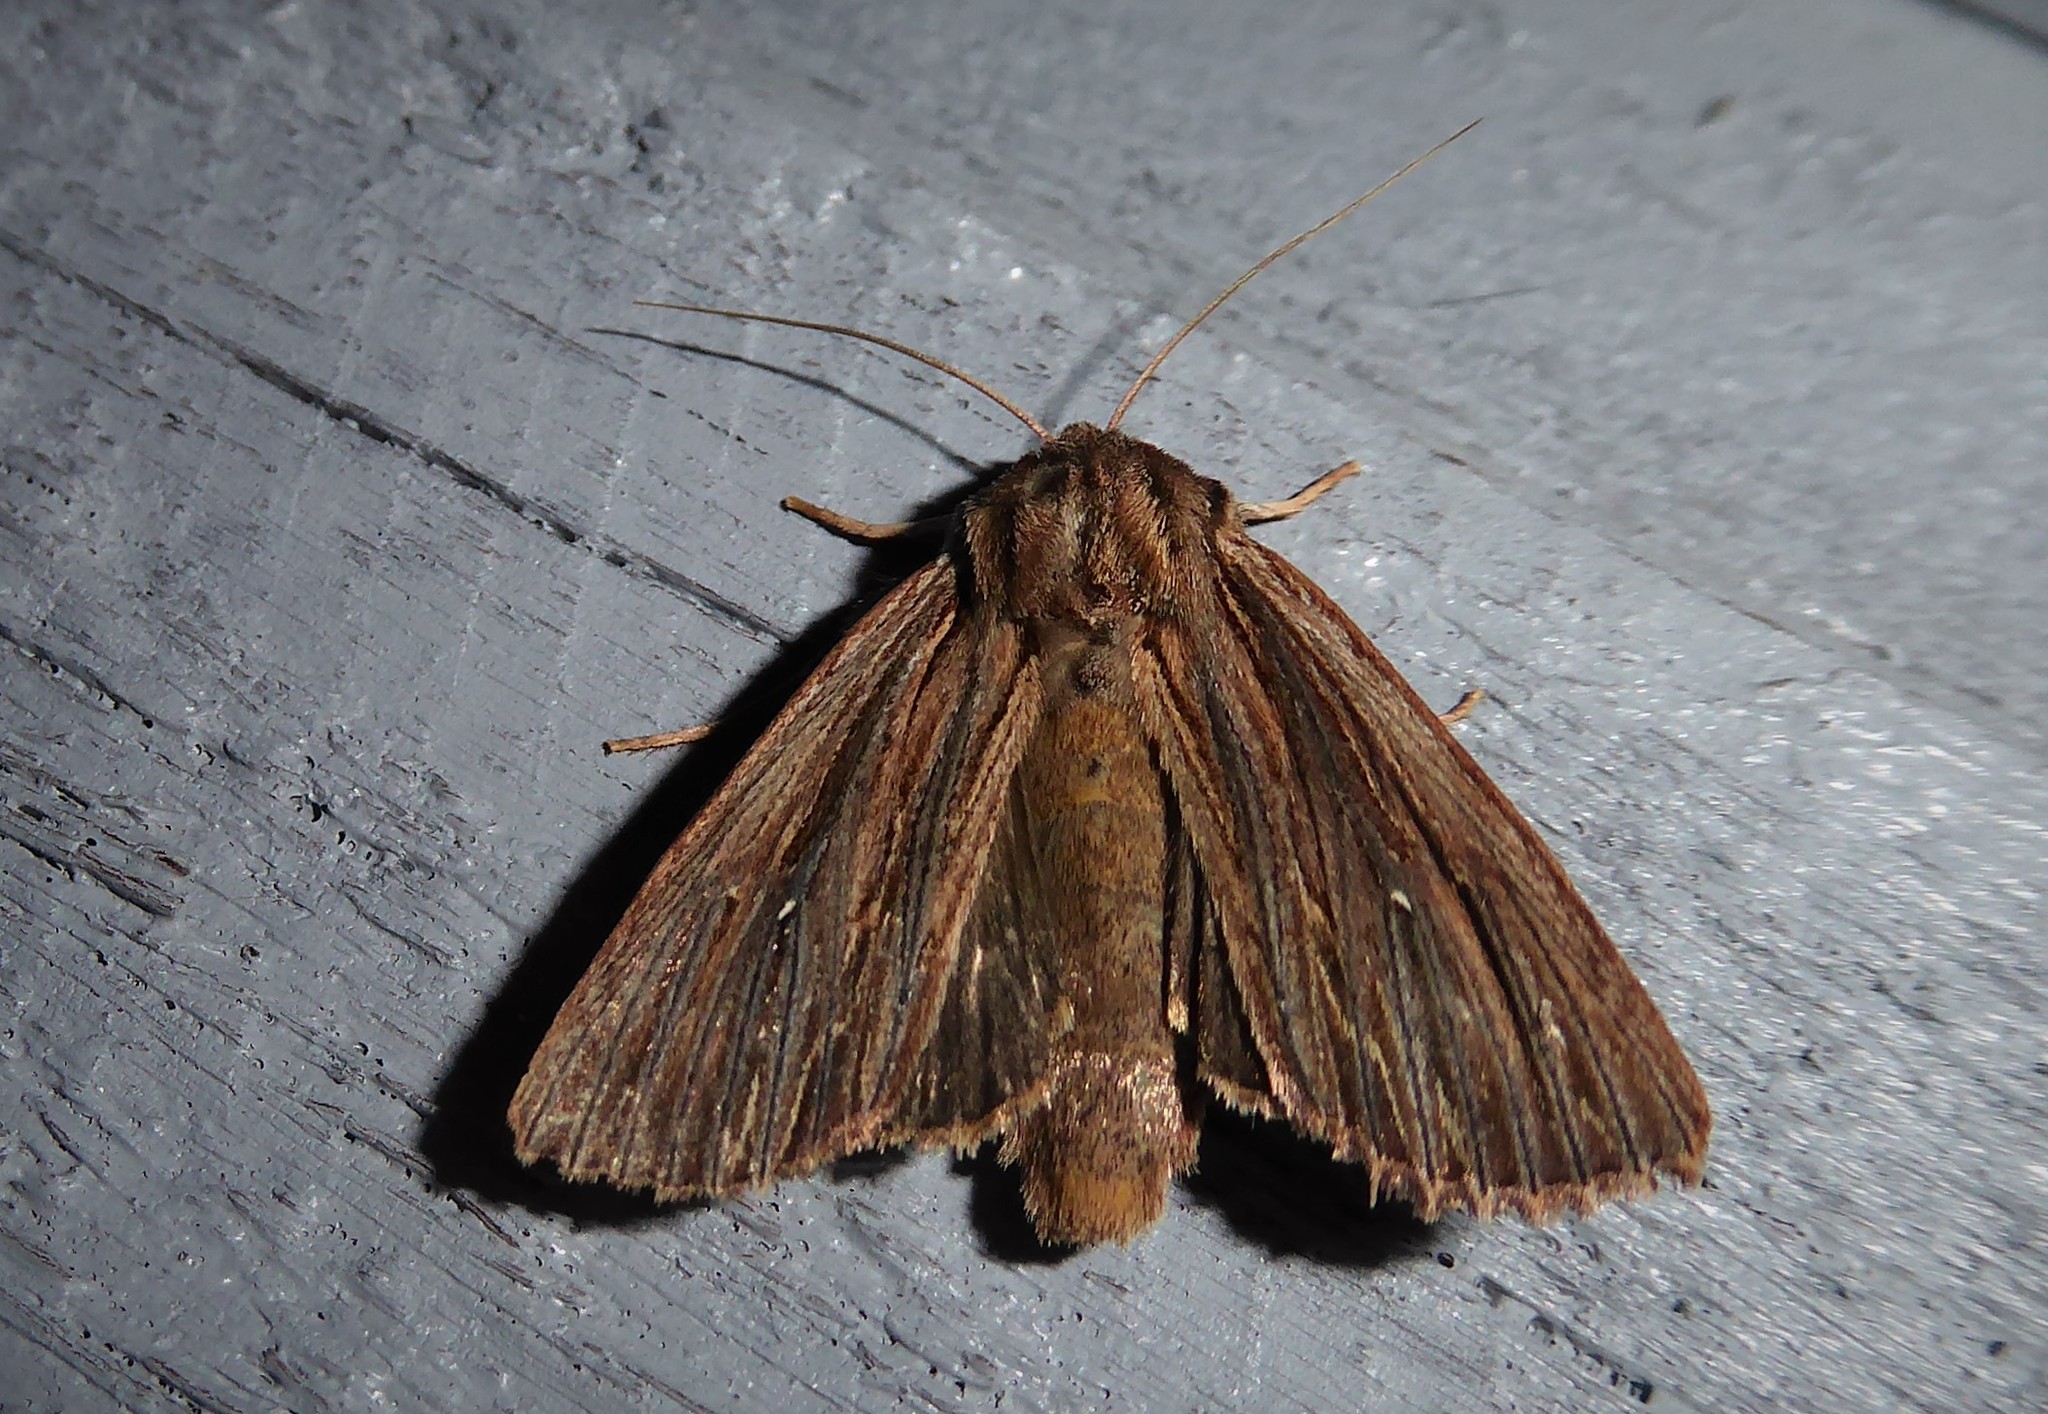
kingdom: Animalia
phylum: Arthropoda
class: Insecta
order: Lepidoptera
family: Noctuidae
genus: Ichneutica
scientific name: Ichneutica
